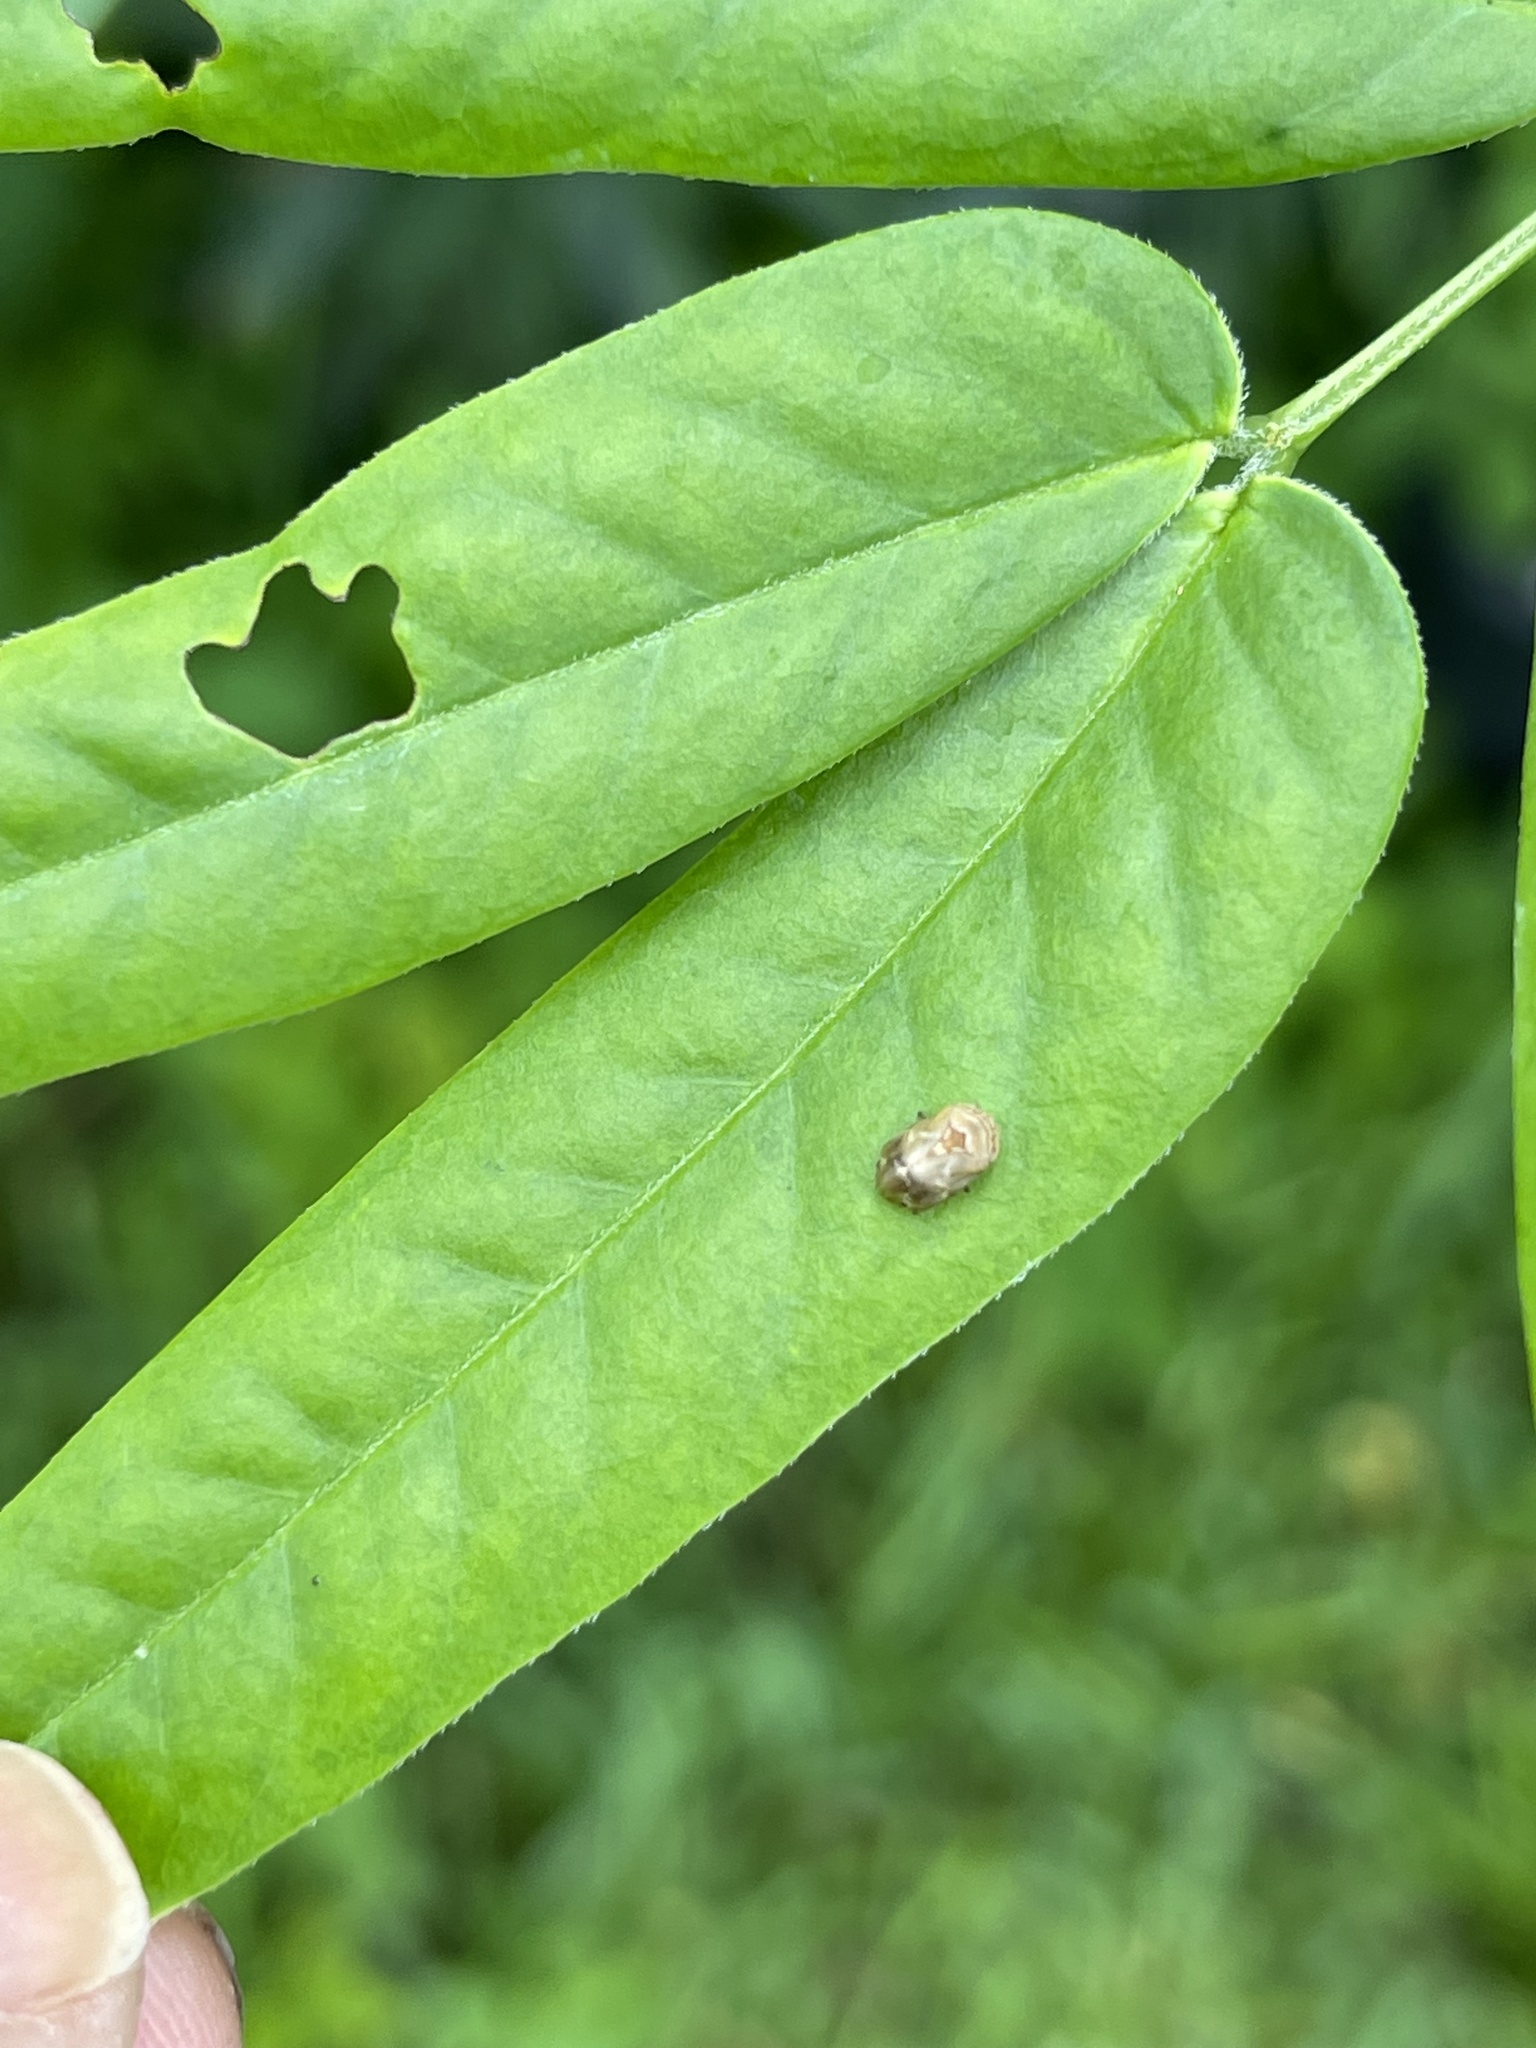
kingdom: Animalia
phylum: Arthropoda
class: Insecta
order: Hemiptera
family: Clastopteridae
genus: Clastoptera
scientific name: Clastoptera querci
